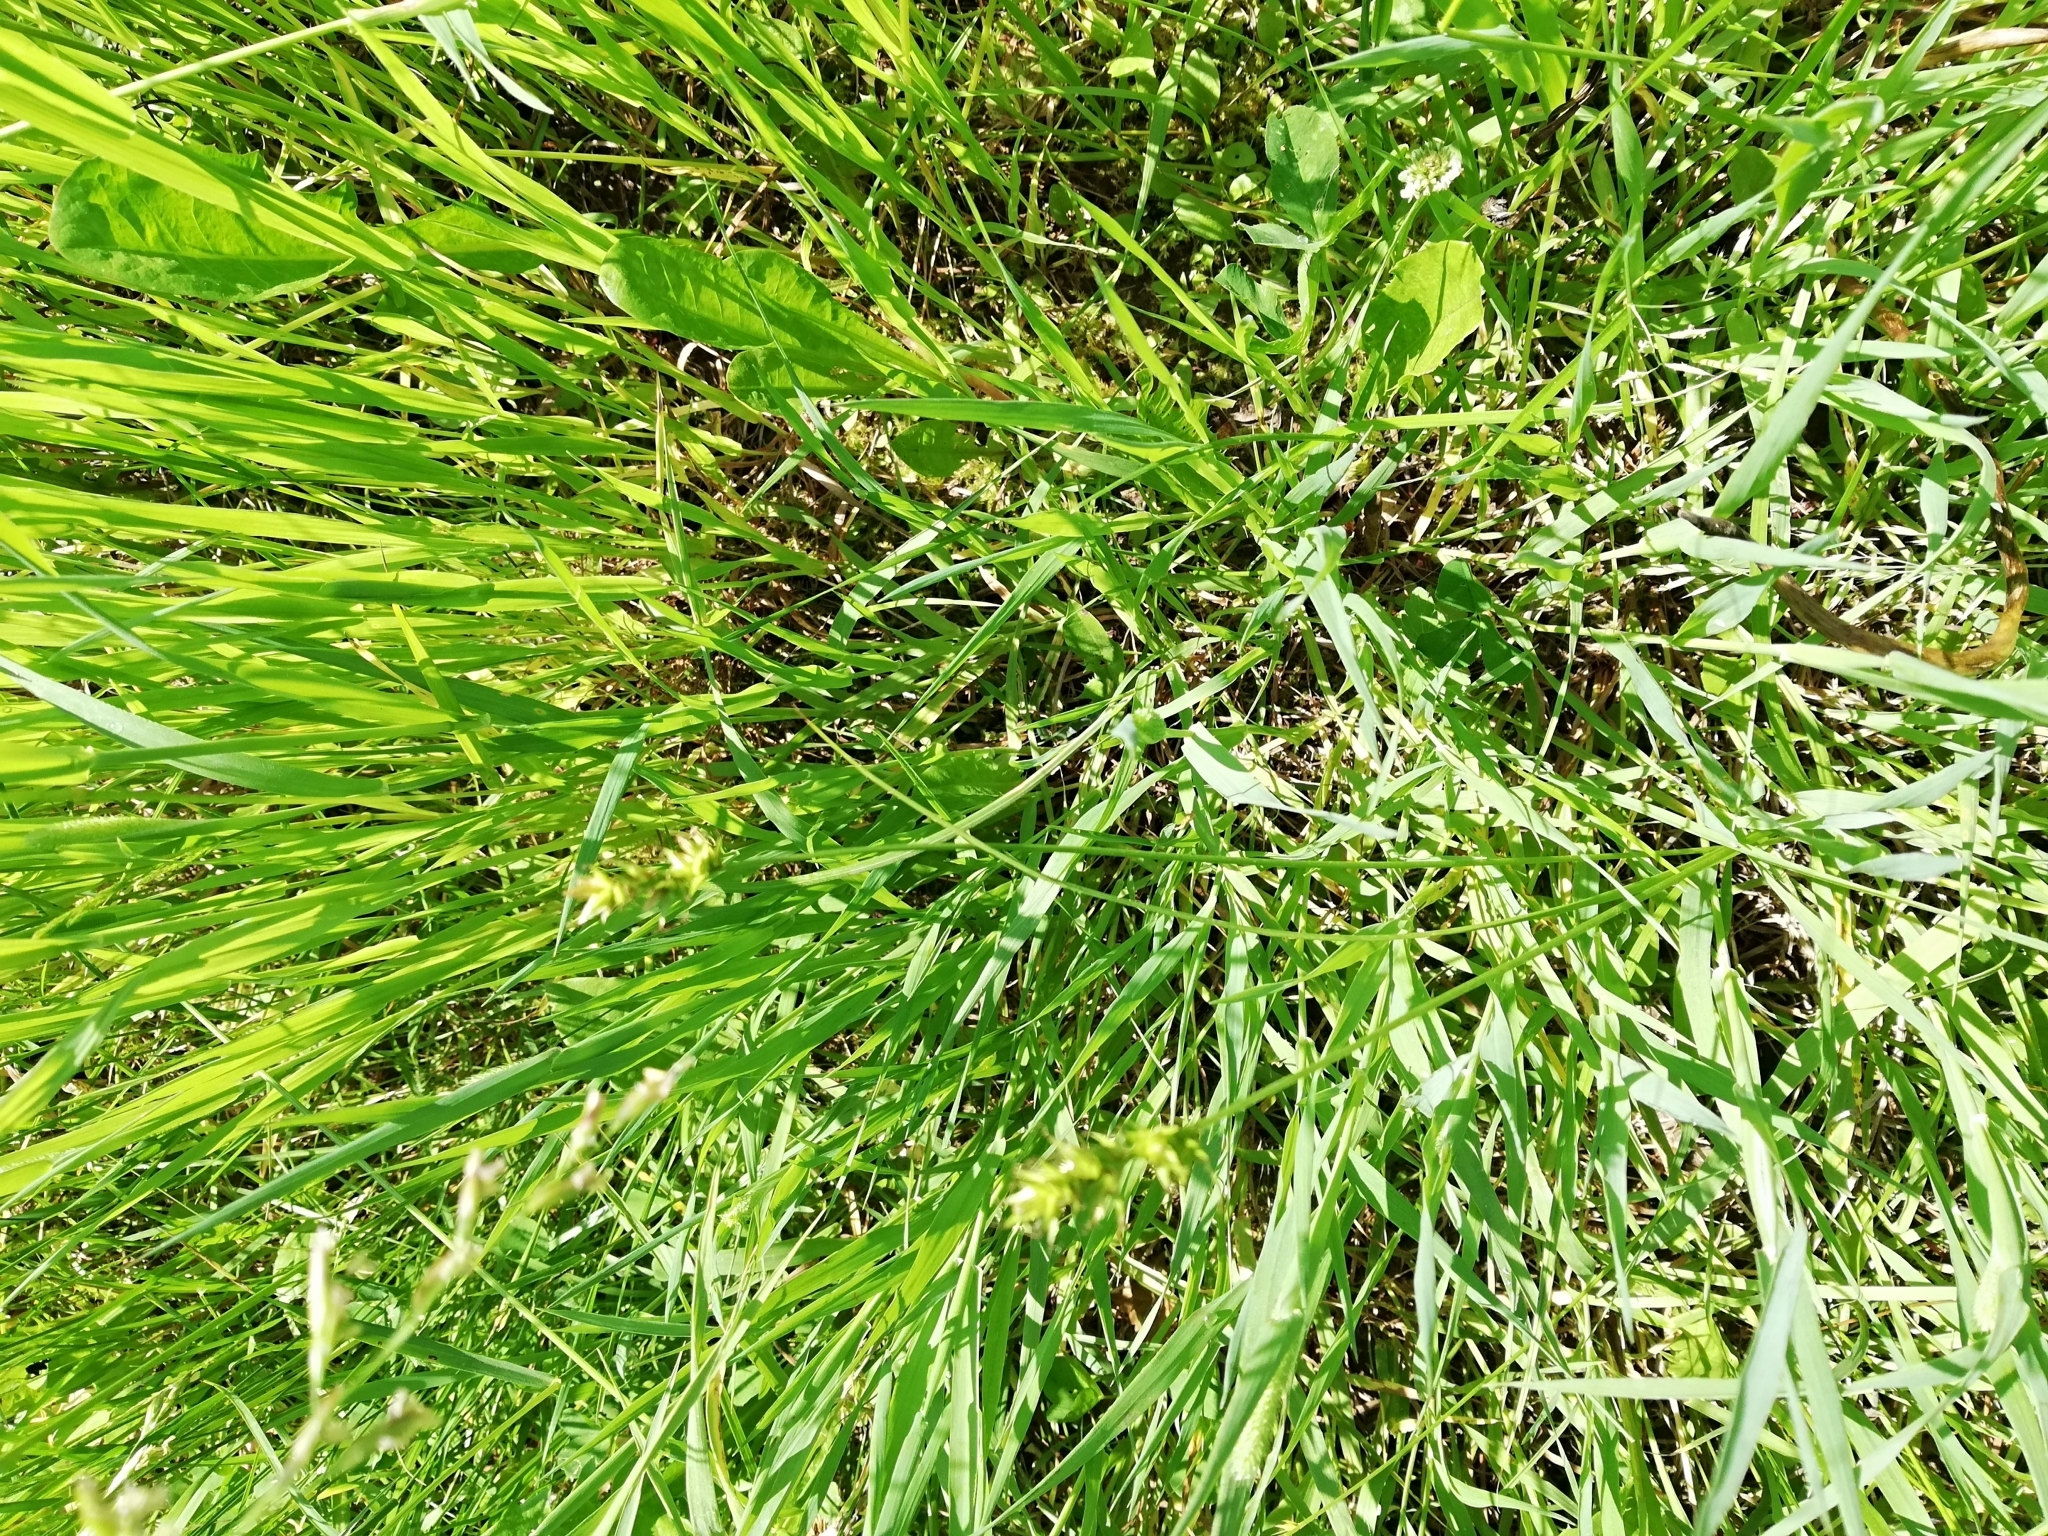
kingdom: Plantae
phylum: Tracheophyta
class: Liliopsida
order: Poales
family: Cyperaceae
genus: Carex
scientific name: Carex spicata
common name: Spiked sedge
